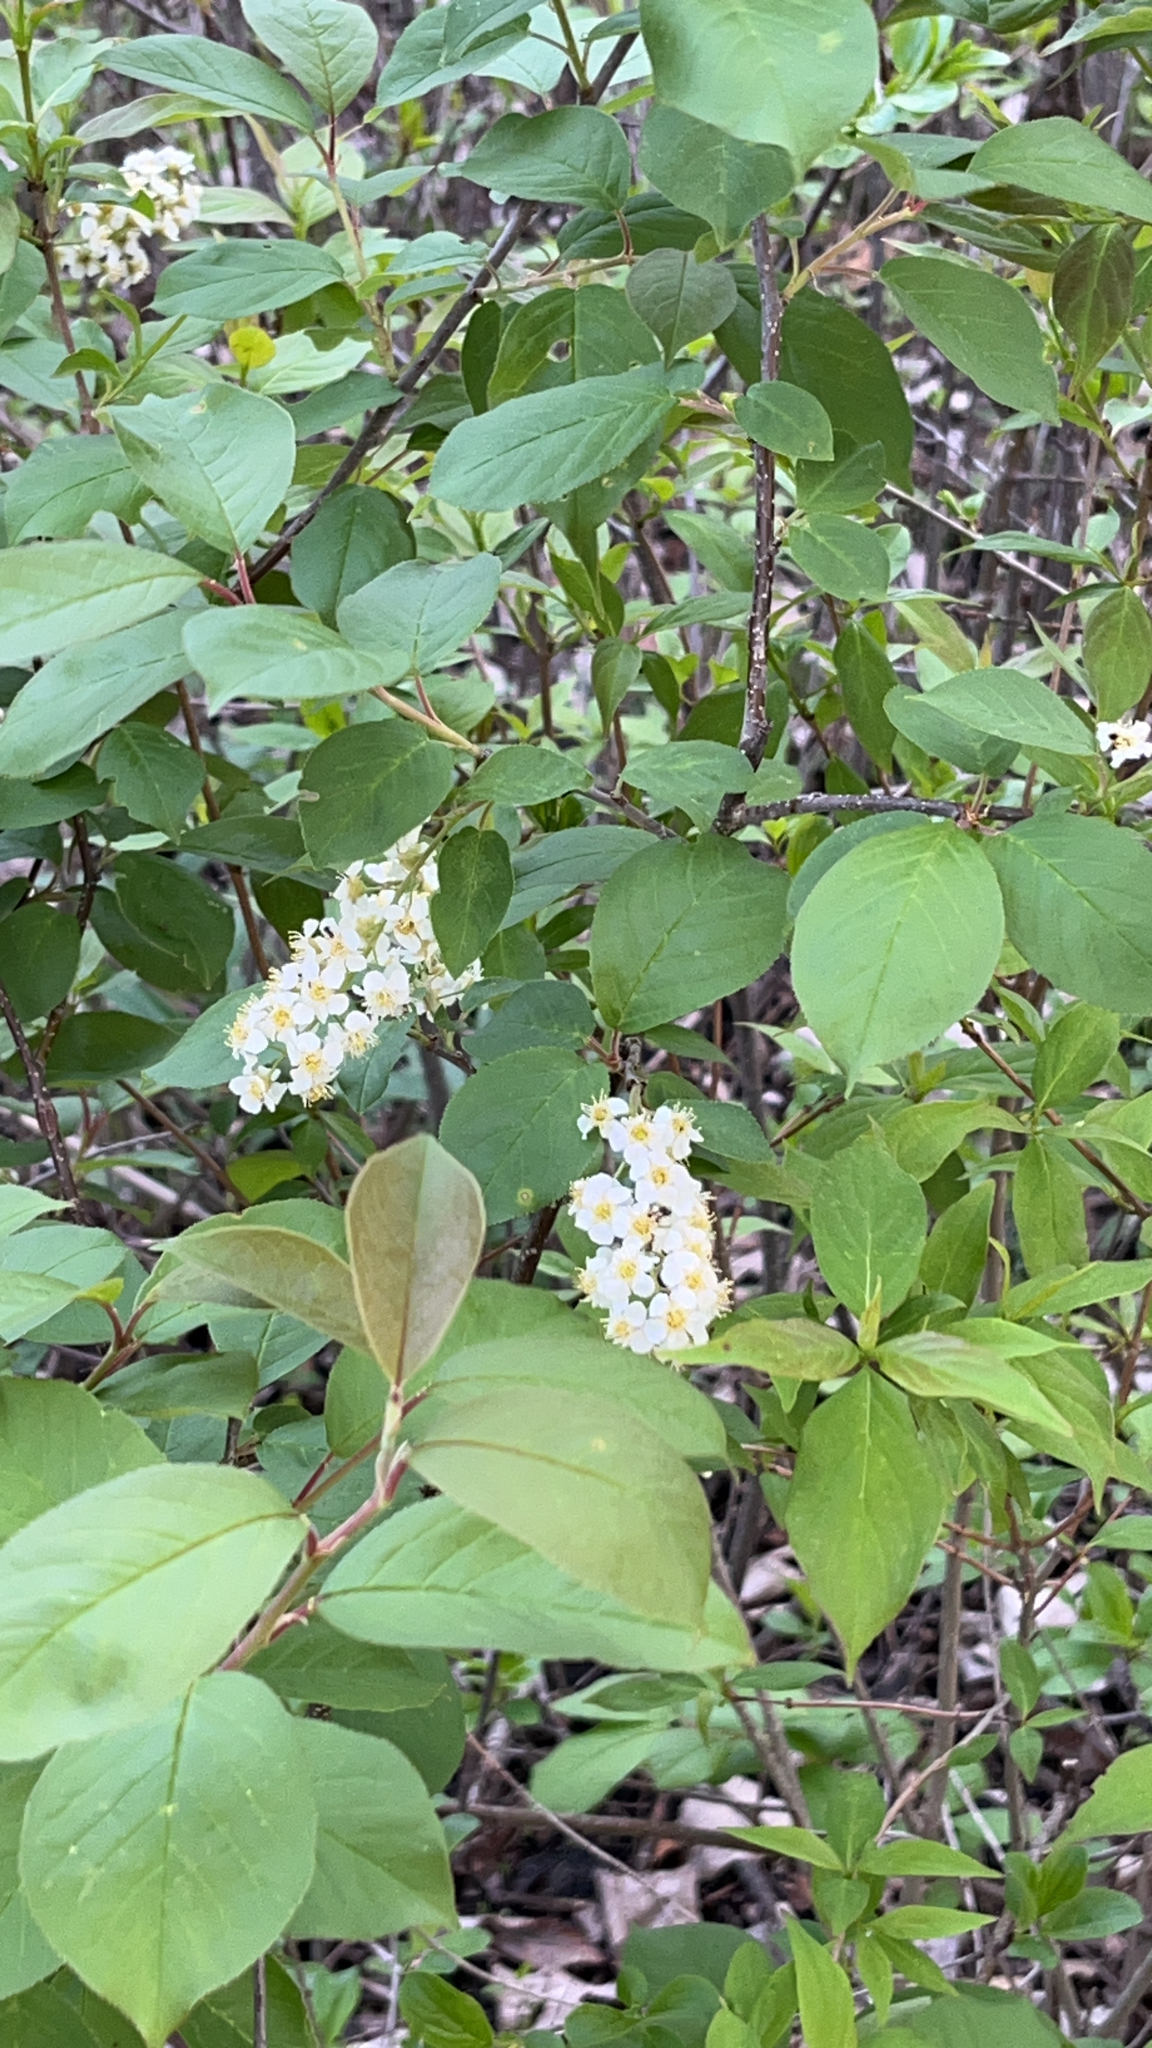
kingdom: Plantae
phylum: Tracheophyta
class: Magnoliopsida
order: Rosales
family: Rosaceae
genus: Prunus
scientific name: Prunus virginiana
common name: Chokecherry
